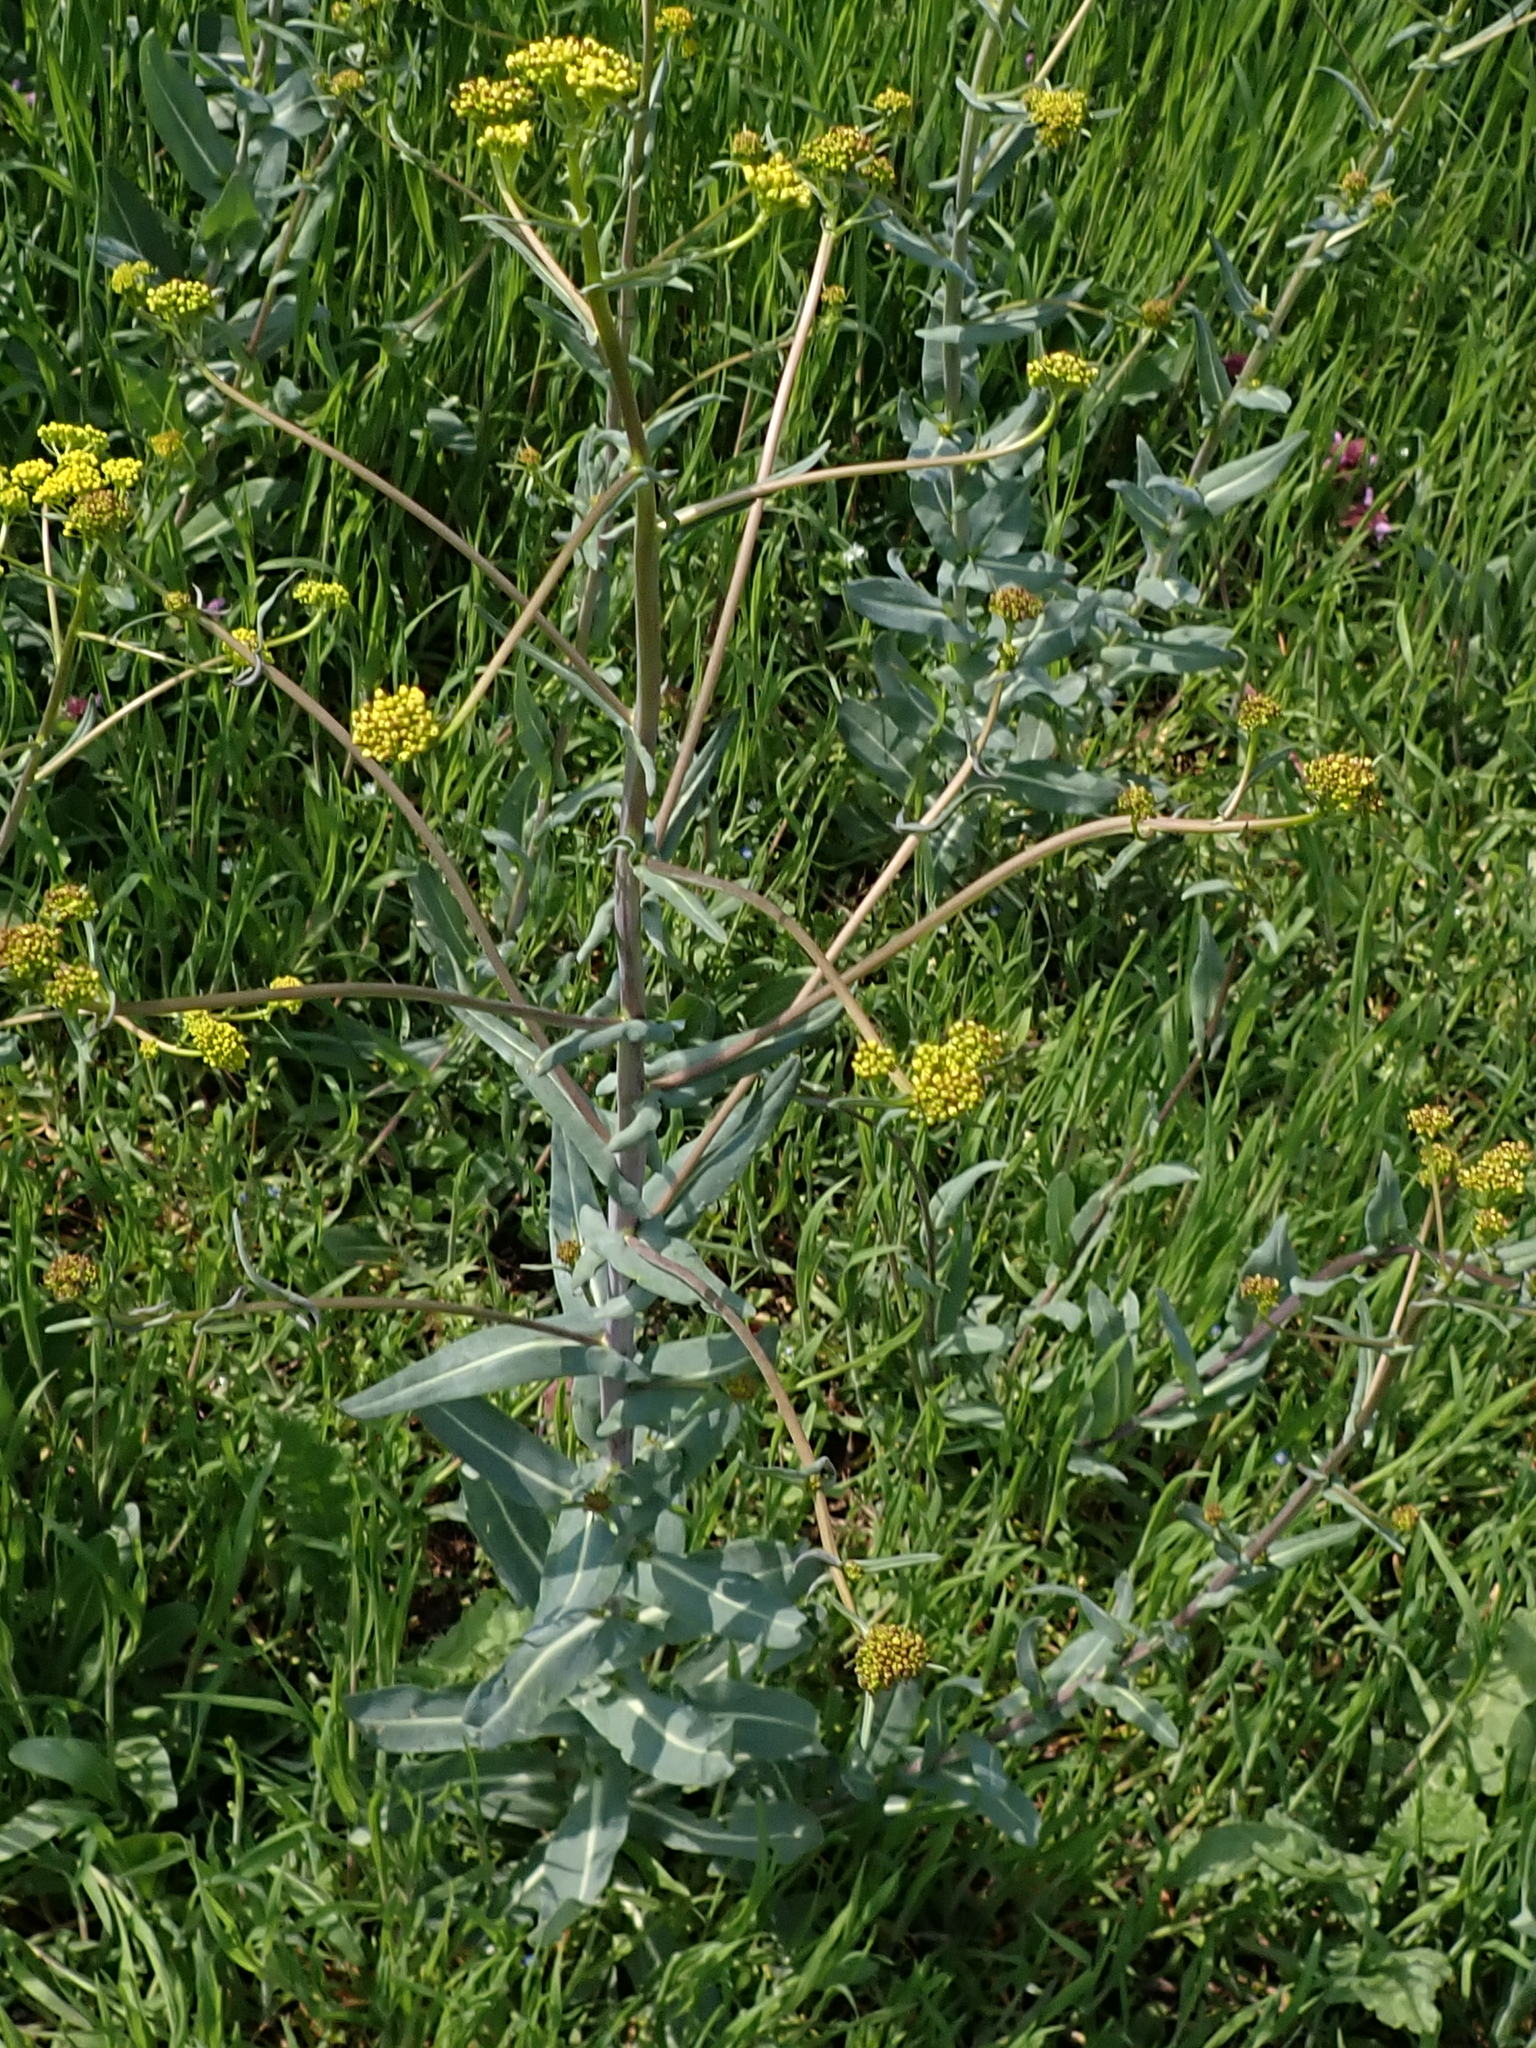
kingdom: Plantae
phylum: Tracheophyta
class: Magnoliopsida
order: Brassicales
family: Brassicaceae
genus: Isatis
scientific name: Isatis tinctoria
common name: Woad
